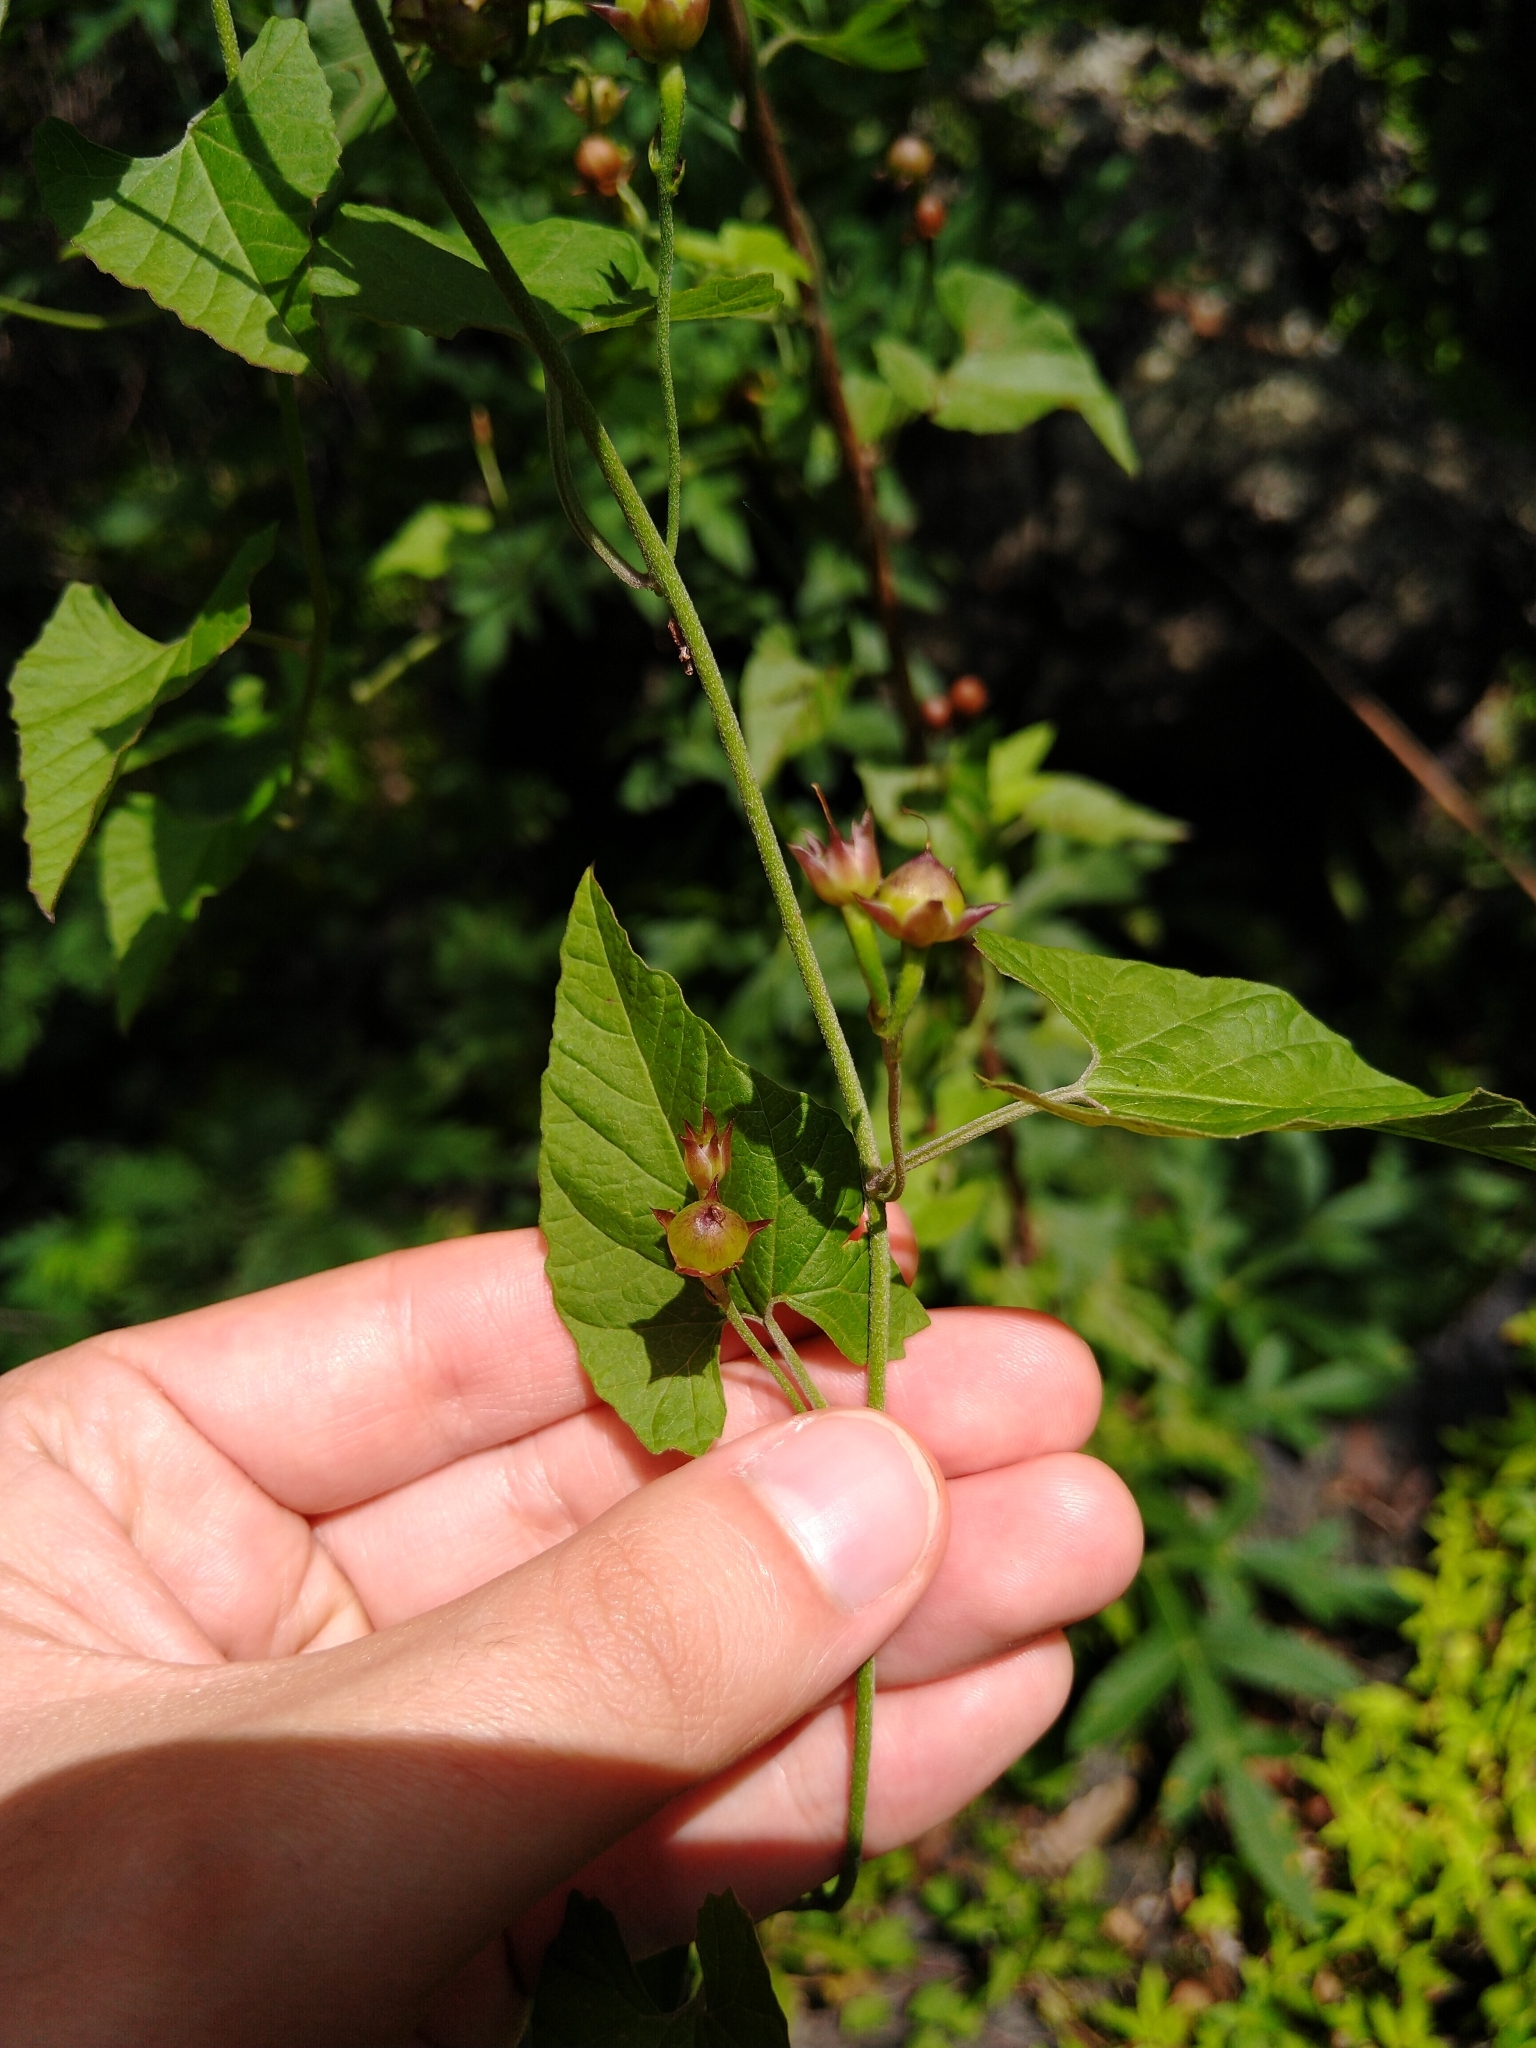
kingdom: Plantae
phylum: Tracheophyta
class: Magnoliopsida
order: Solanales
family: Convolvulaceae
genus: Convolvulus
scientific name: Convolvulus crenatifolius
